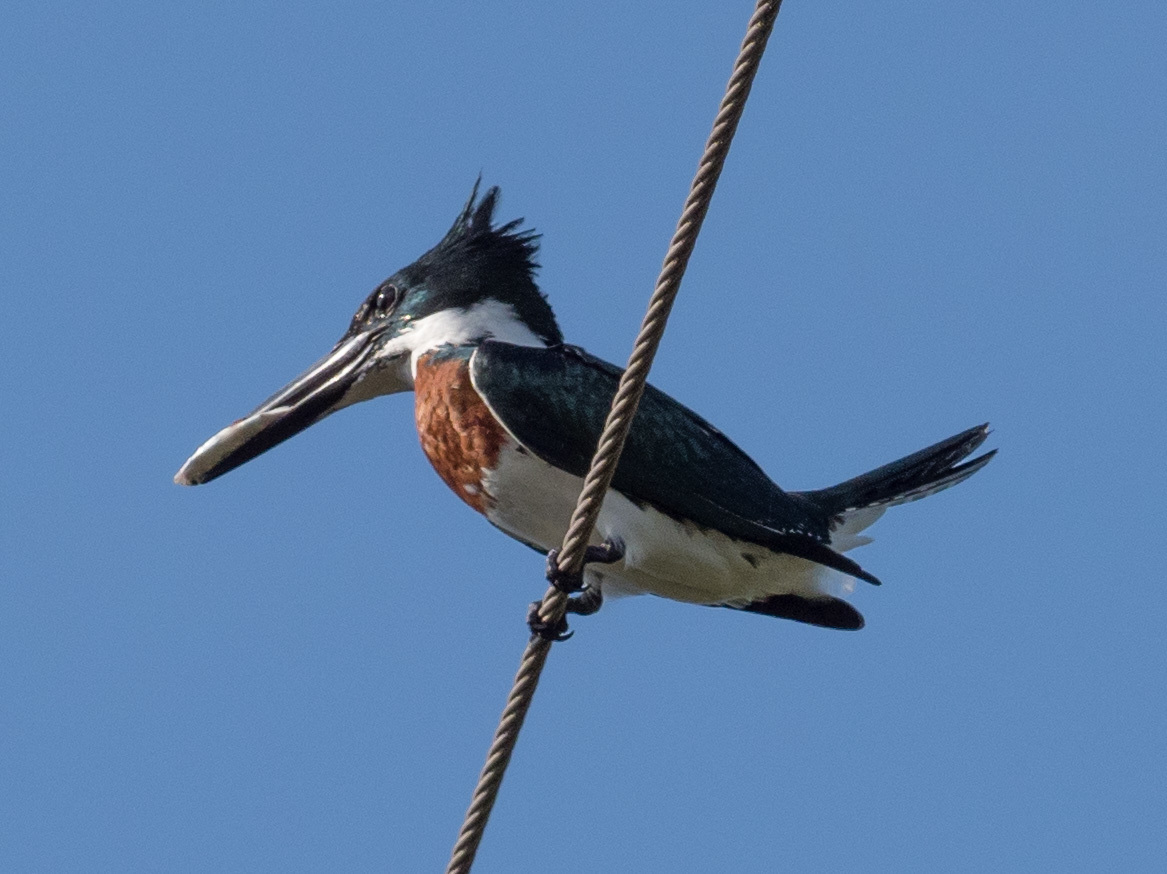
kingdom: Animalia
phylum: Chordata
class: Aves
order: Coraciiformes
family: Alcedinidae
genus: Chloroceryle
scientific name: Chloroceryle amazona
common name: Amazon kingfisher
